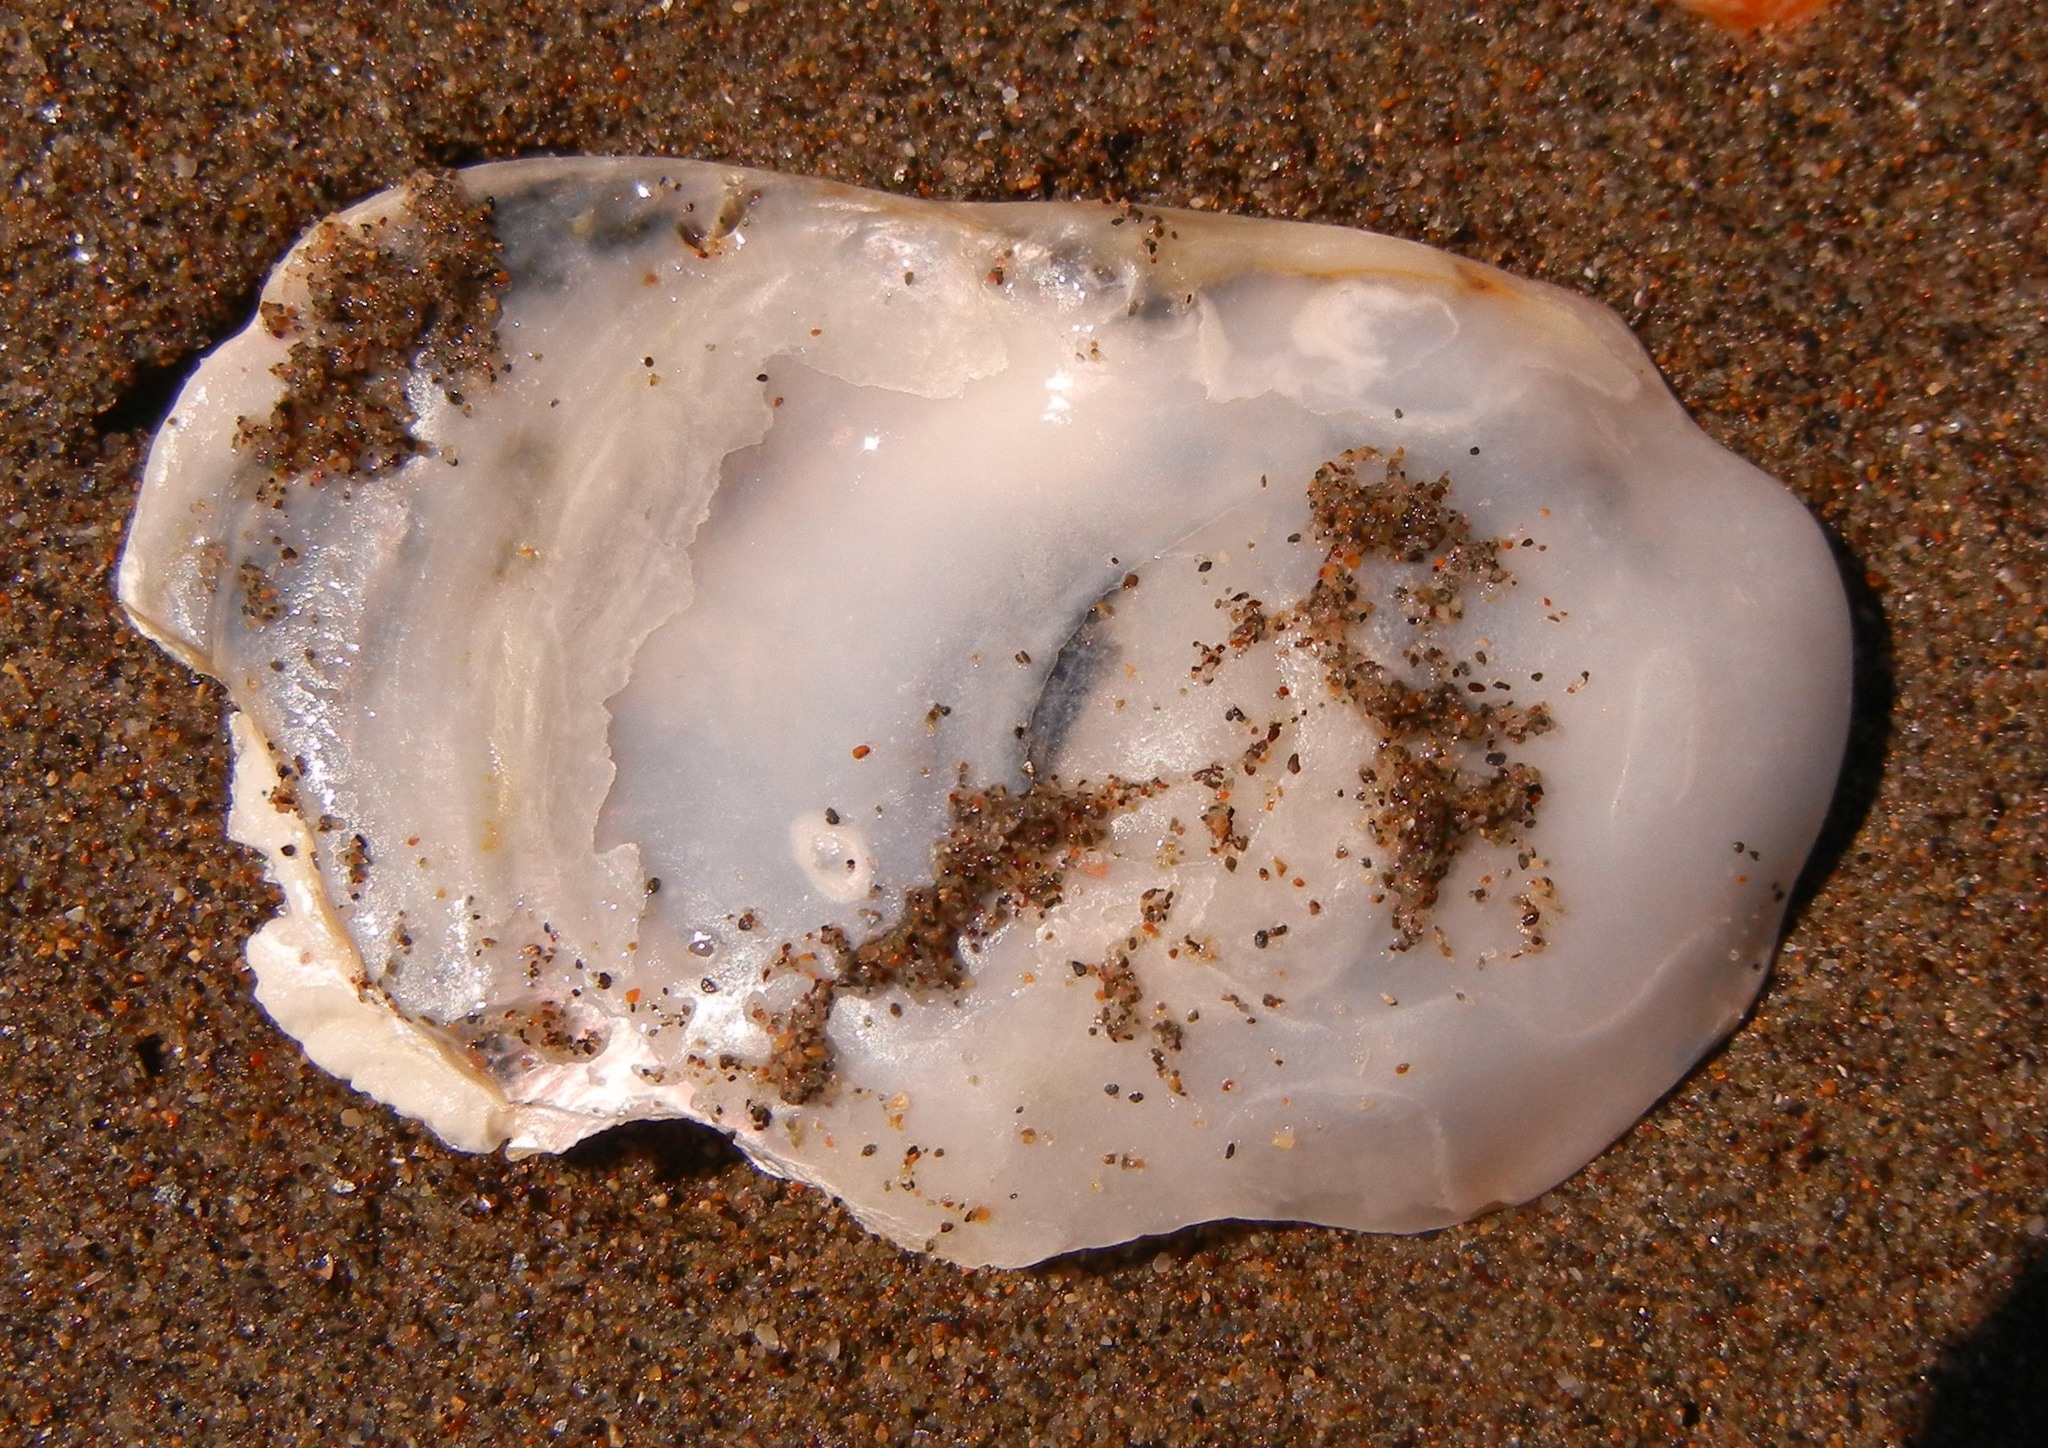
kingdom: Animalia
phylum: Mollusca
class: Bivalvia
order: Ostreida
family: Ostreidae
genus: Ostrea
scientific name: Ostrea edulis
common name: Flat oyster
